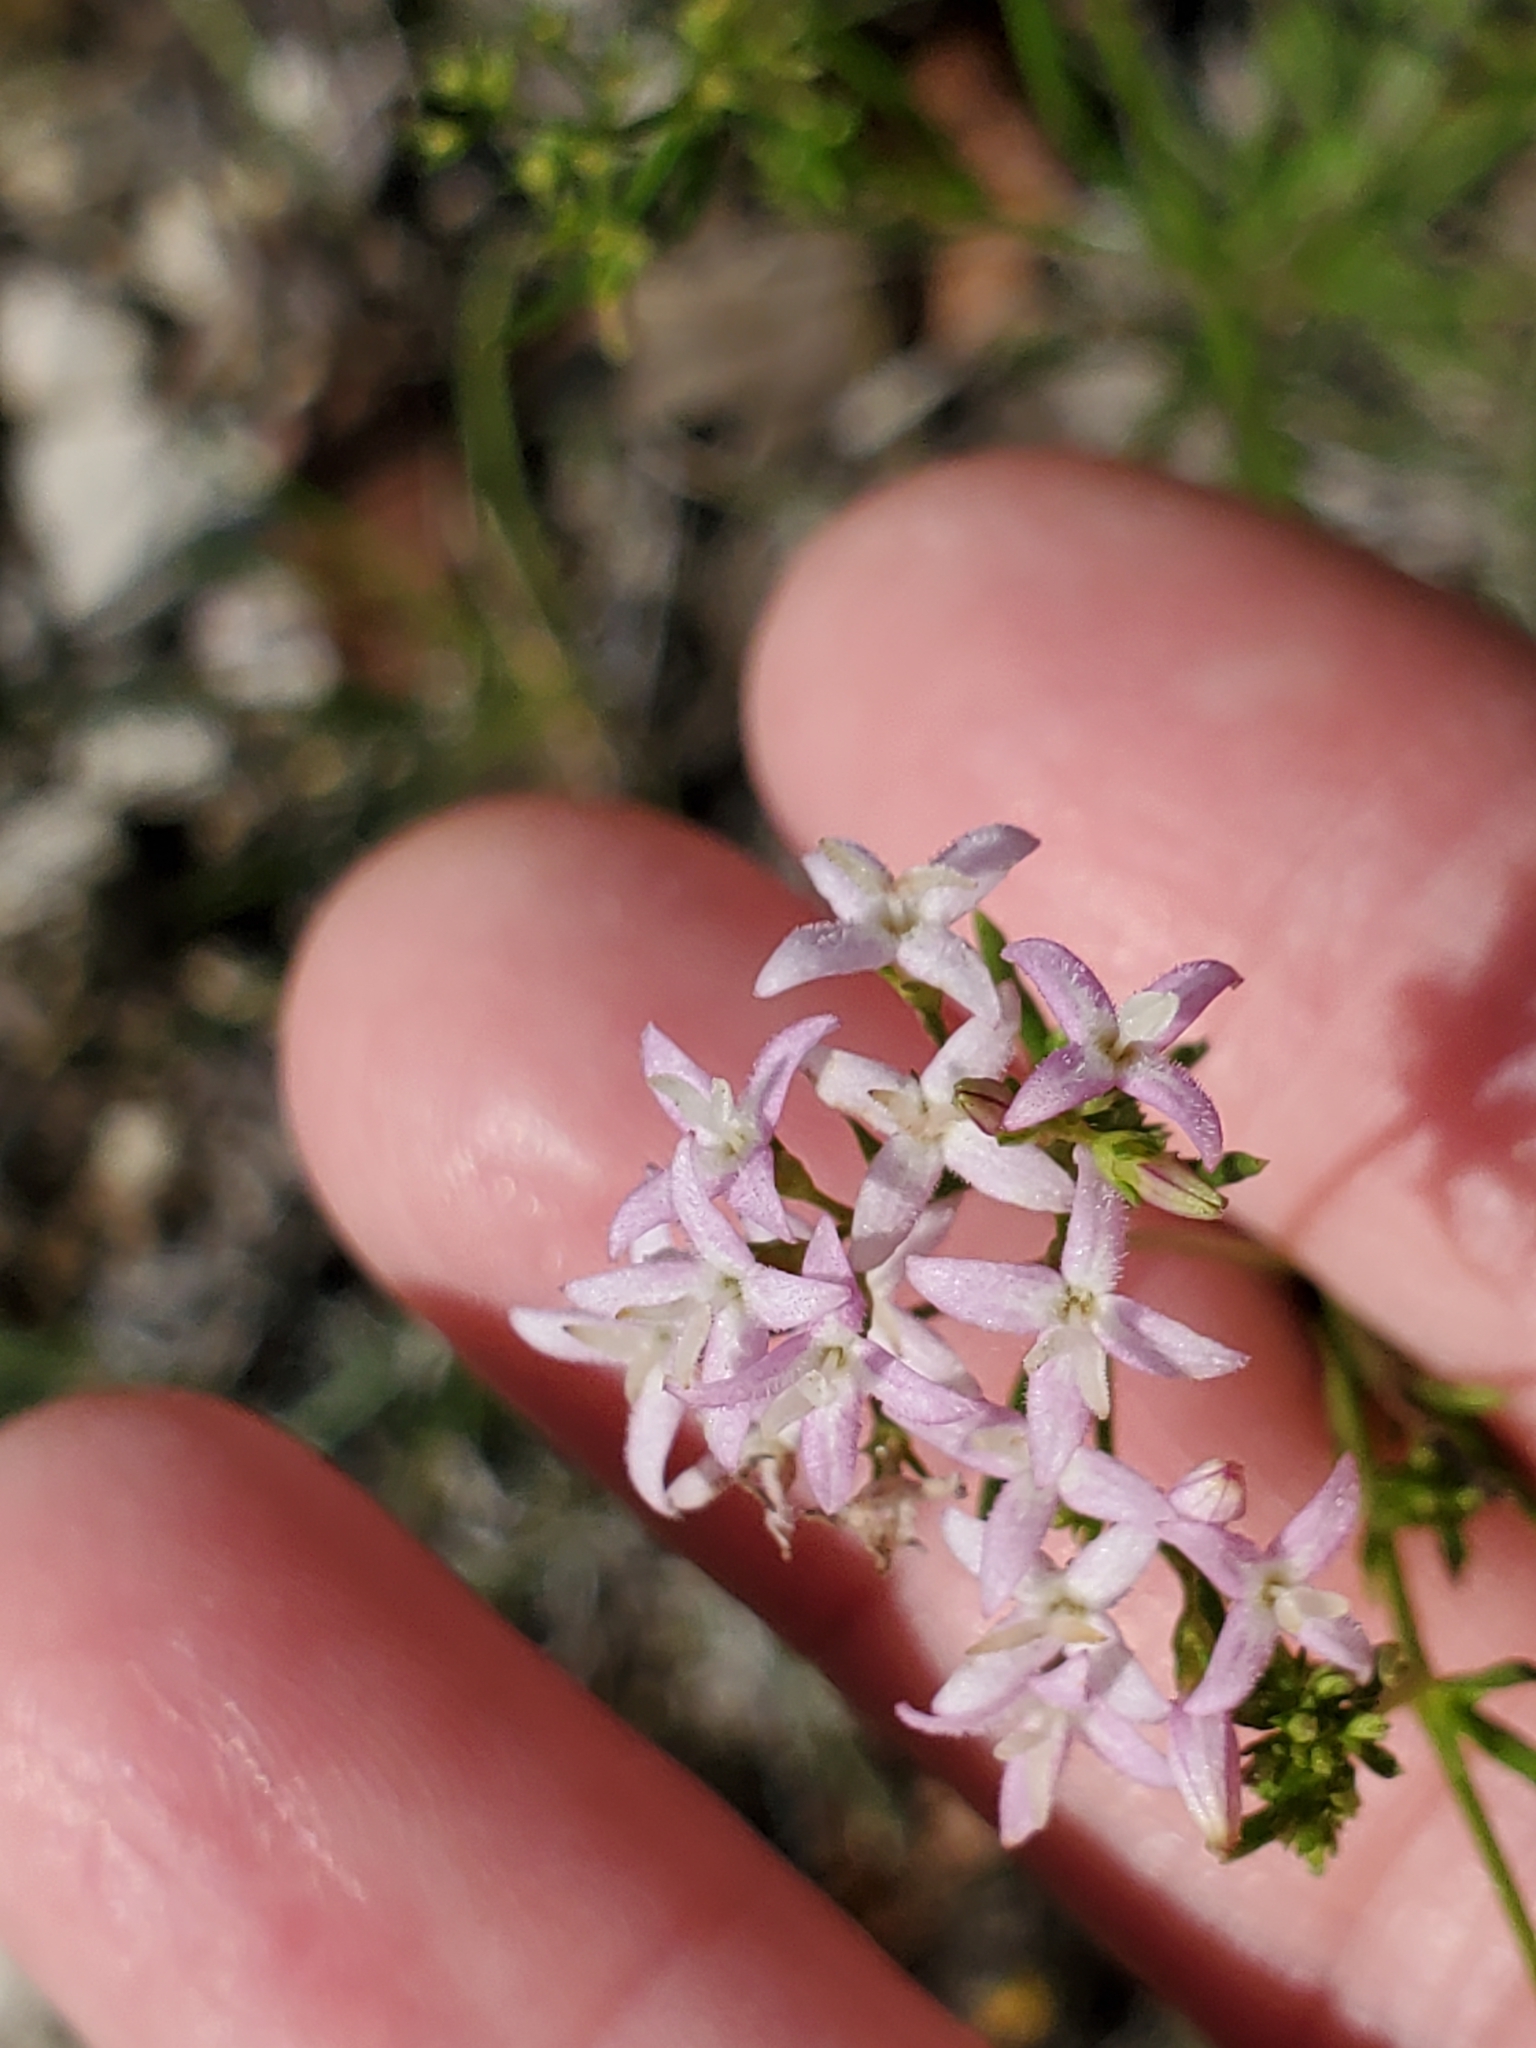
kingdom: Plantae
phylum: Tracheophyta
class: Magnoliopsida
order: Gentianales
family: Rubiaceae
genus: Stenaria
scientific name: Stenaria nigricans
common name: Diamondflowers
